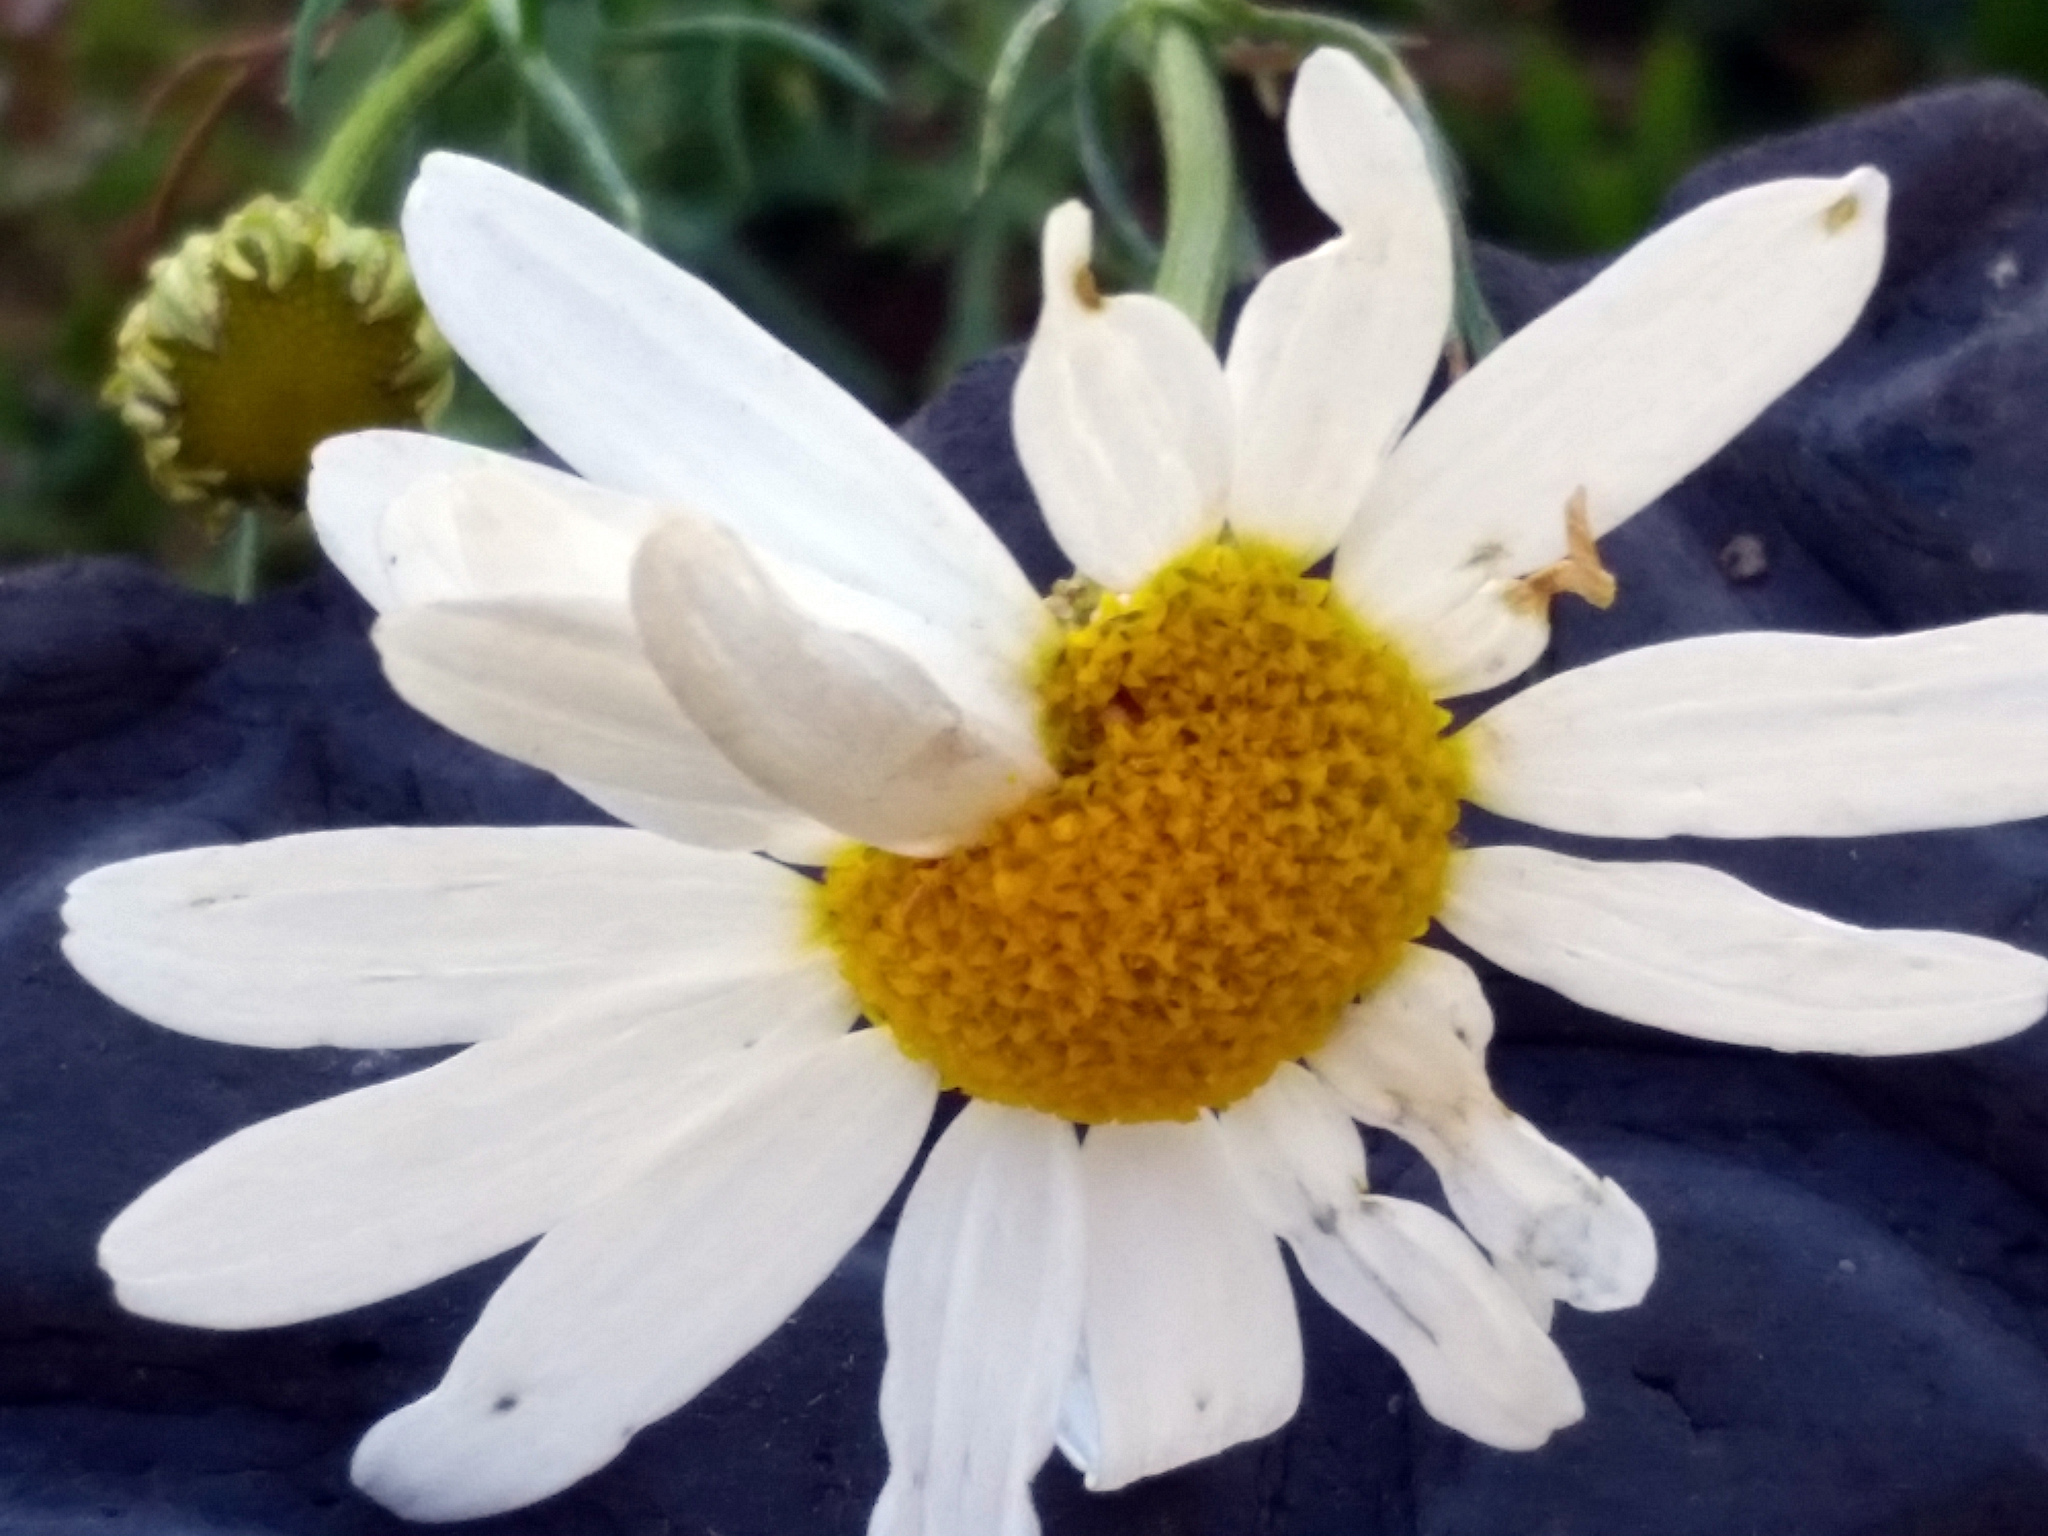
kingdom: Plantae
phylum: Tracheophyta
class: Magnoliopsida
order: Asterales
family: Asteraceae
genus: Tripleurospermum
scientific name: Tripleurospermum inodorum
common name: Scentless mayweed
